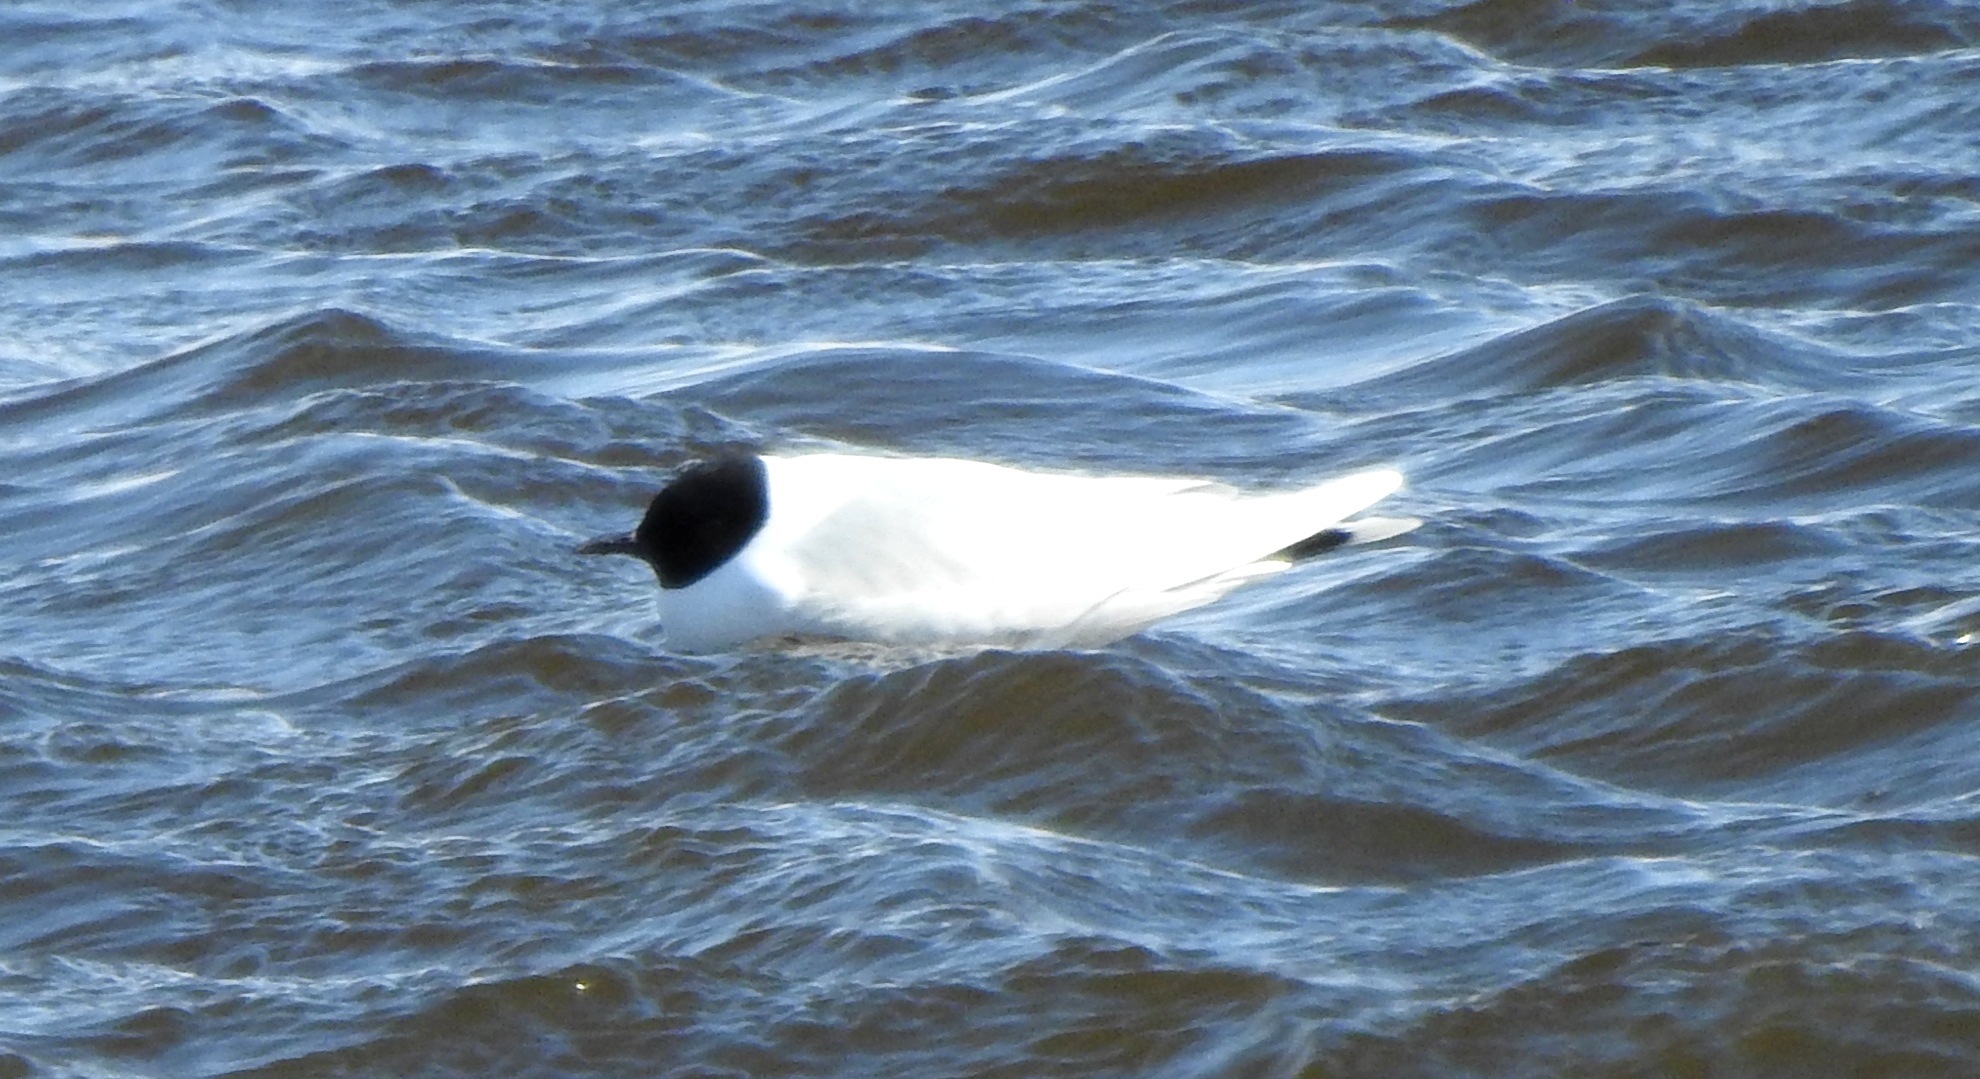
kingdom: Animalia
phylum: Chordata
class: Aves
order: Charadriiformes
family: Laridae
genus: Hydrocoloeus
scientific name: Hydrocoloeus minutus
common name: Little gull
